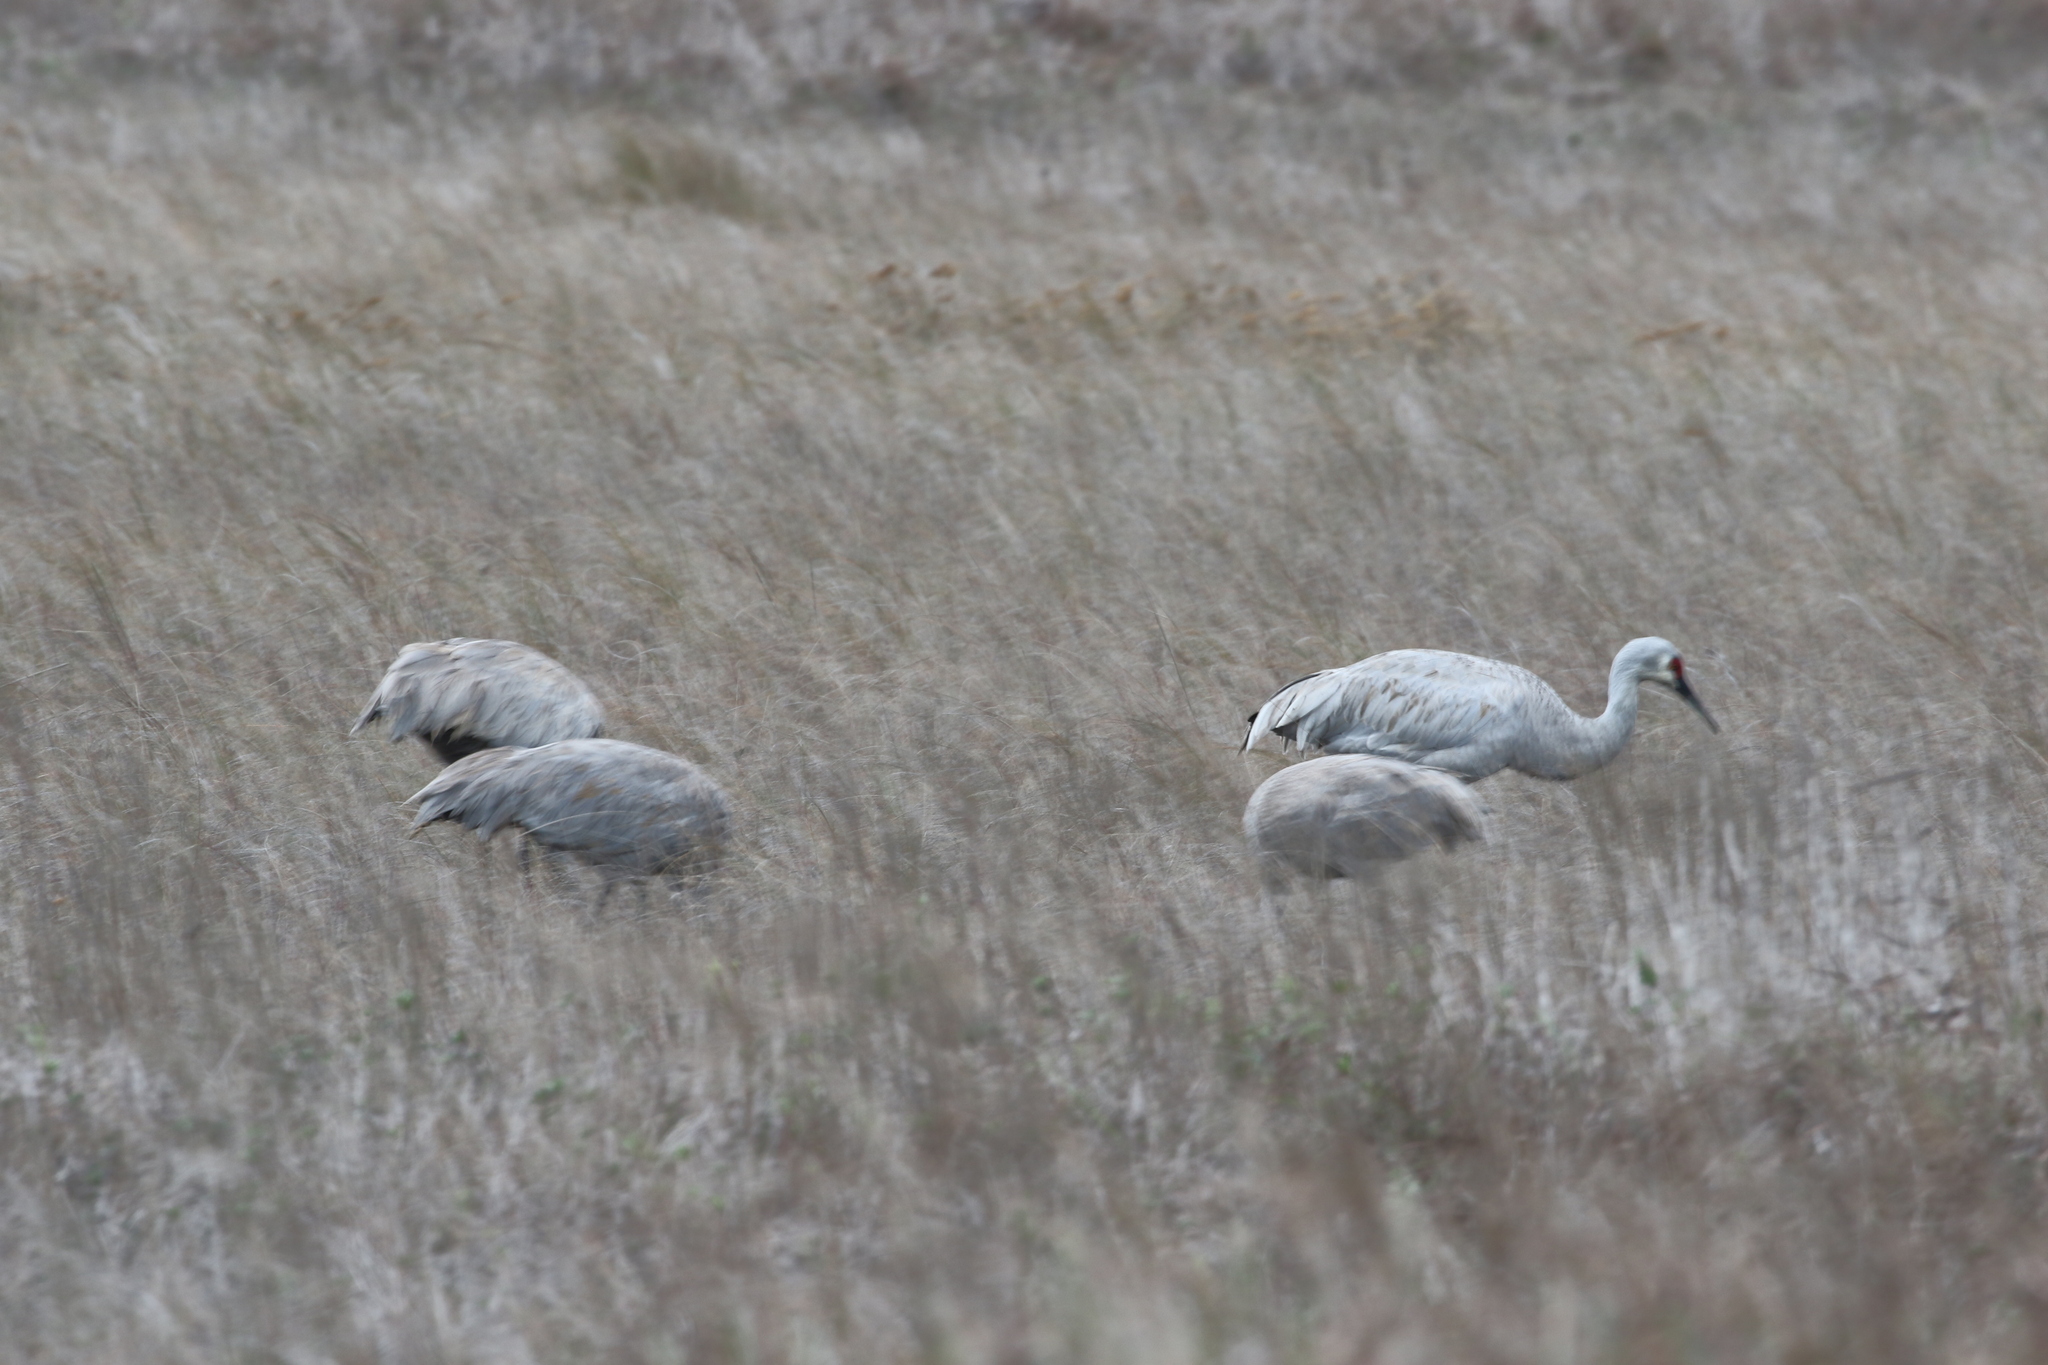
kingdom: Animalia
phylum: Chordata
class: Aves
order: Gruiformes
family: Gruidae
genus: Grus
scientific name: Grus canadensis
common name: Sandhill crane
